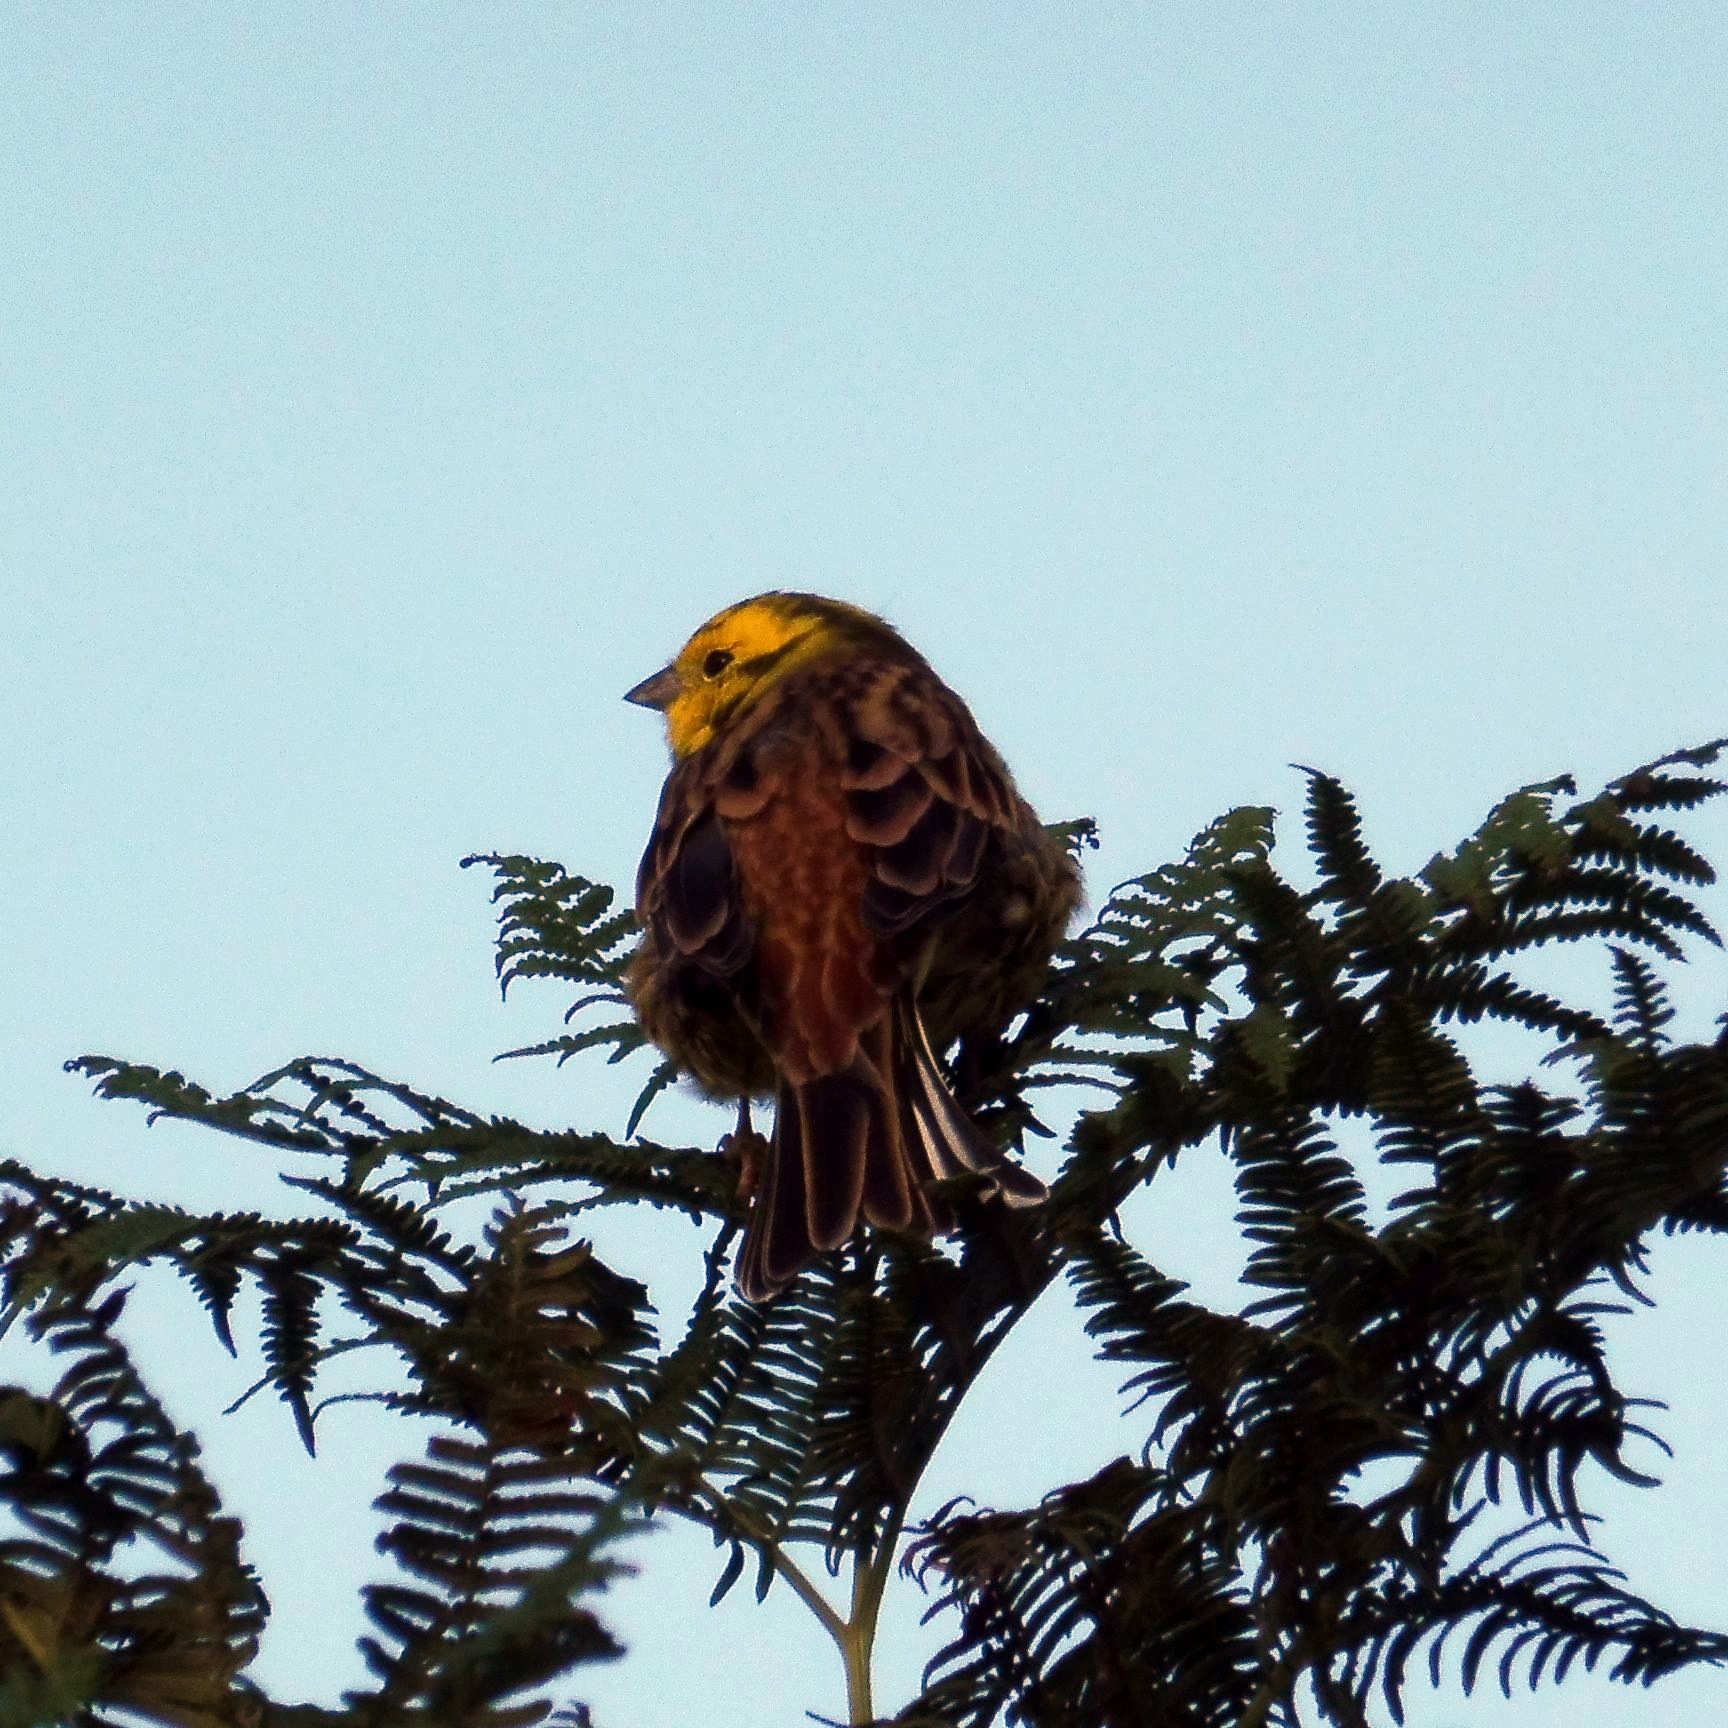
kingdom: Animalia
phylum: Chordata
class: Aves
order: Passeriformes
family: Emberizidae
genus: Emberiza
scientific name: Emberiza citrinella
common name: Yellowhammer
